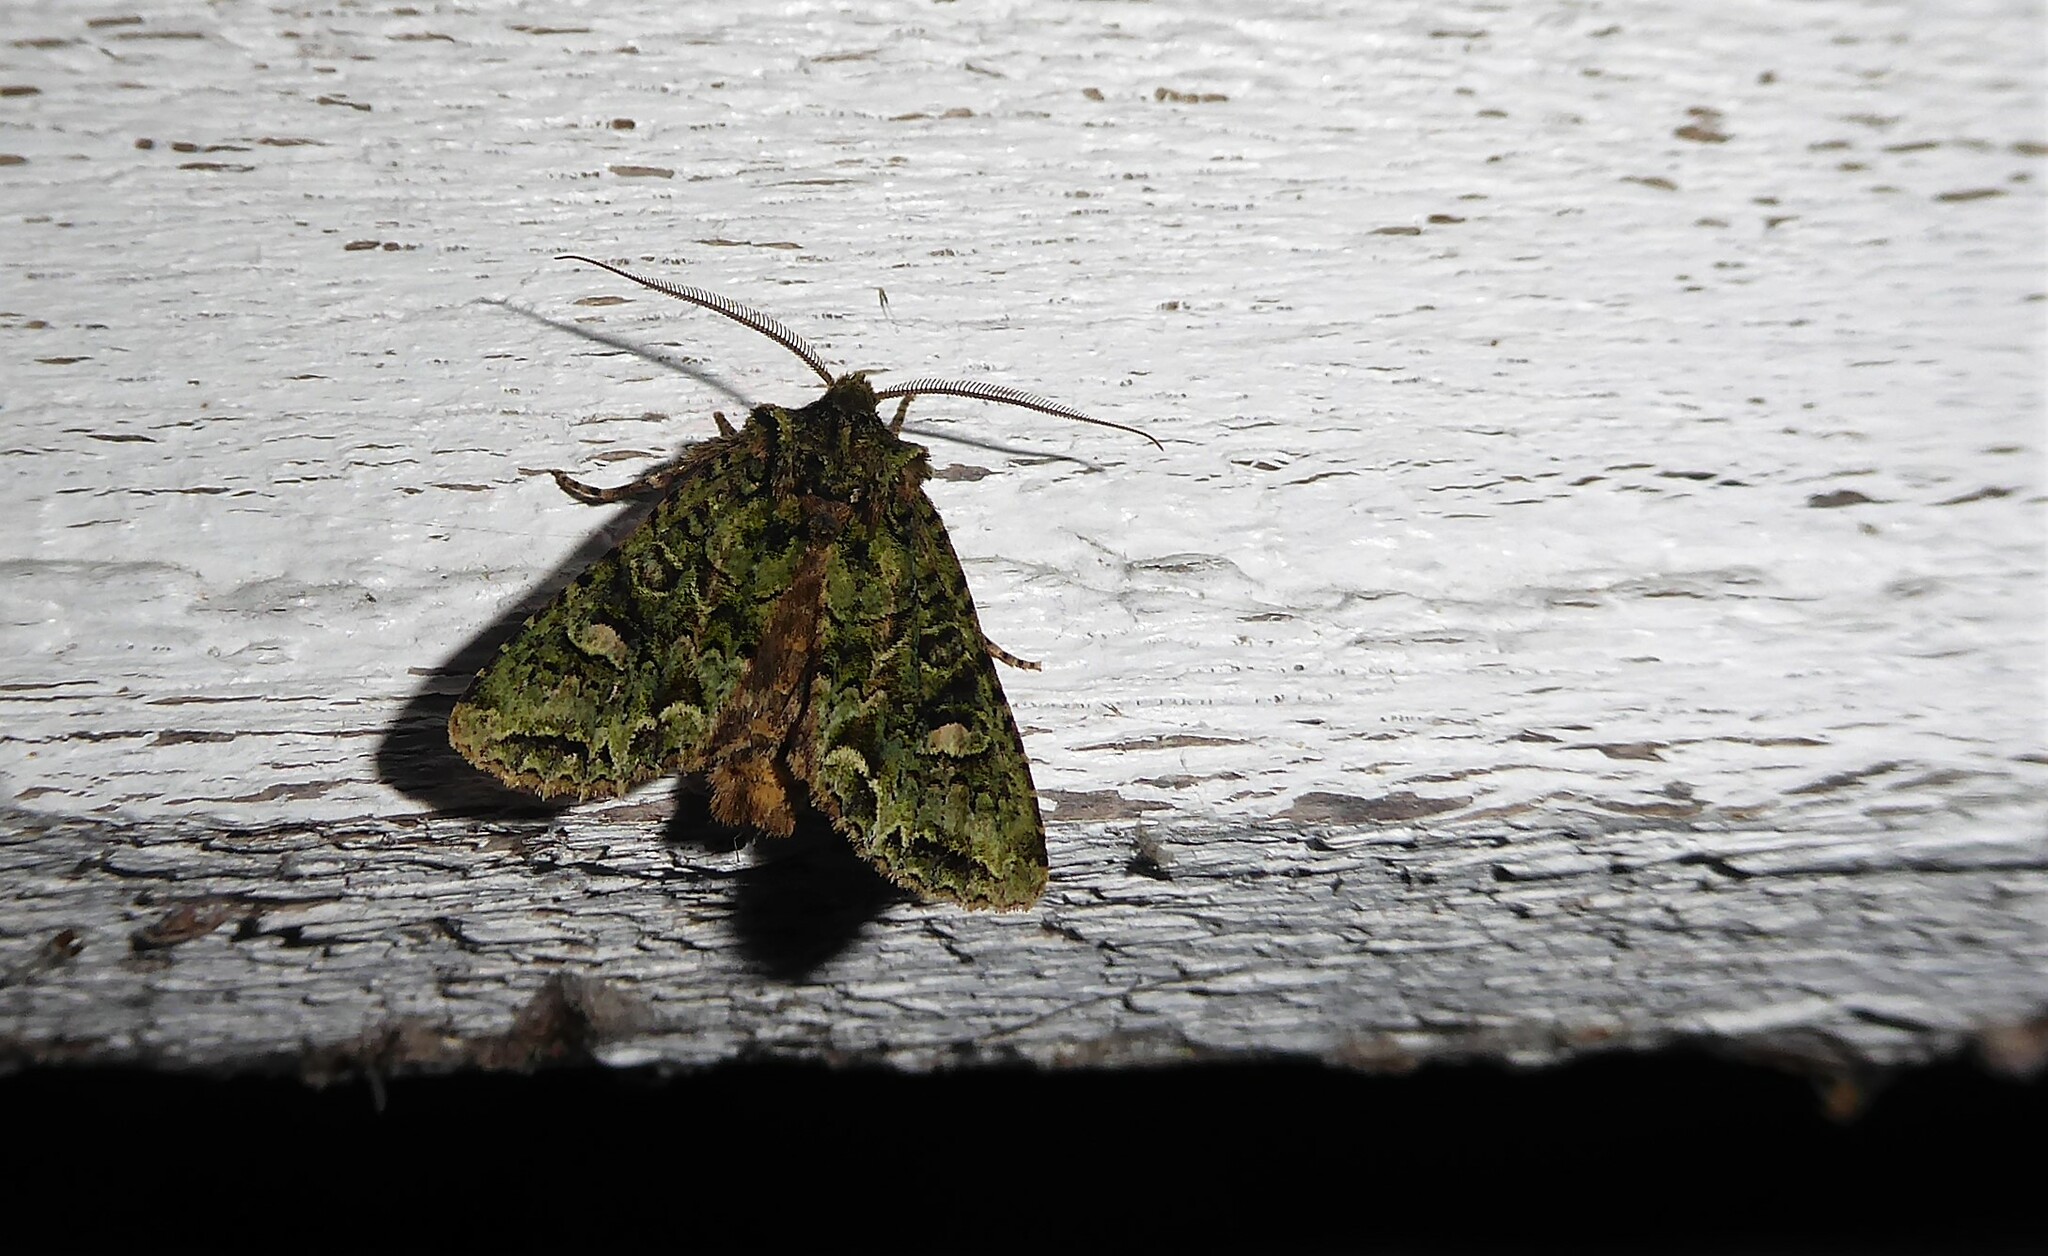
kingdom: Animalia
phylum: Arthropoda
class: Insecta
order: Lepidoptera
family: Noctuidae
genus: Ichneutica
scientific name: Ichneutica
